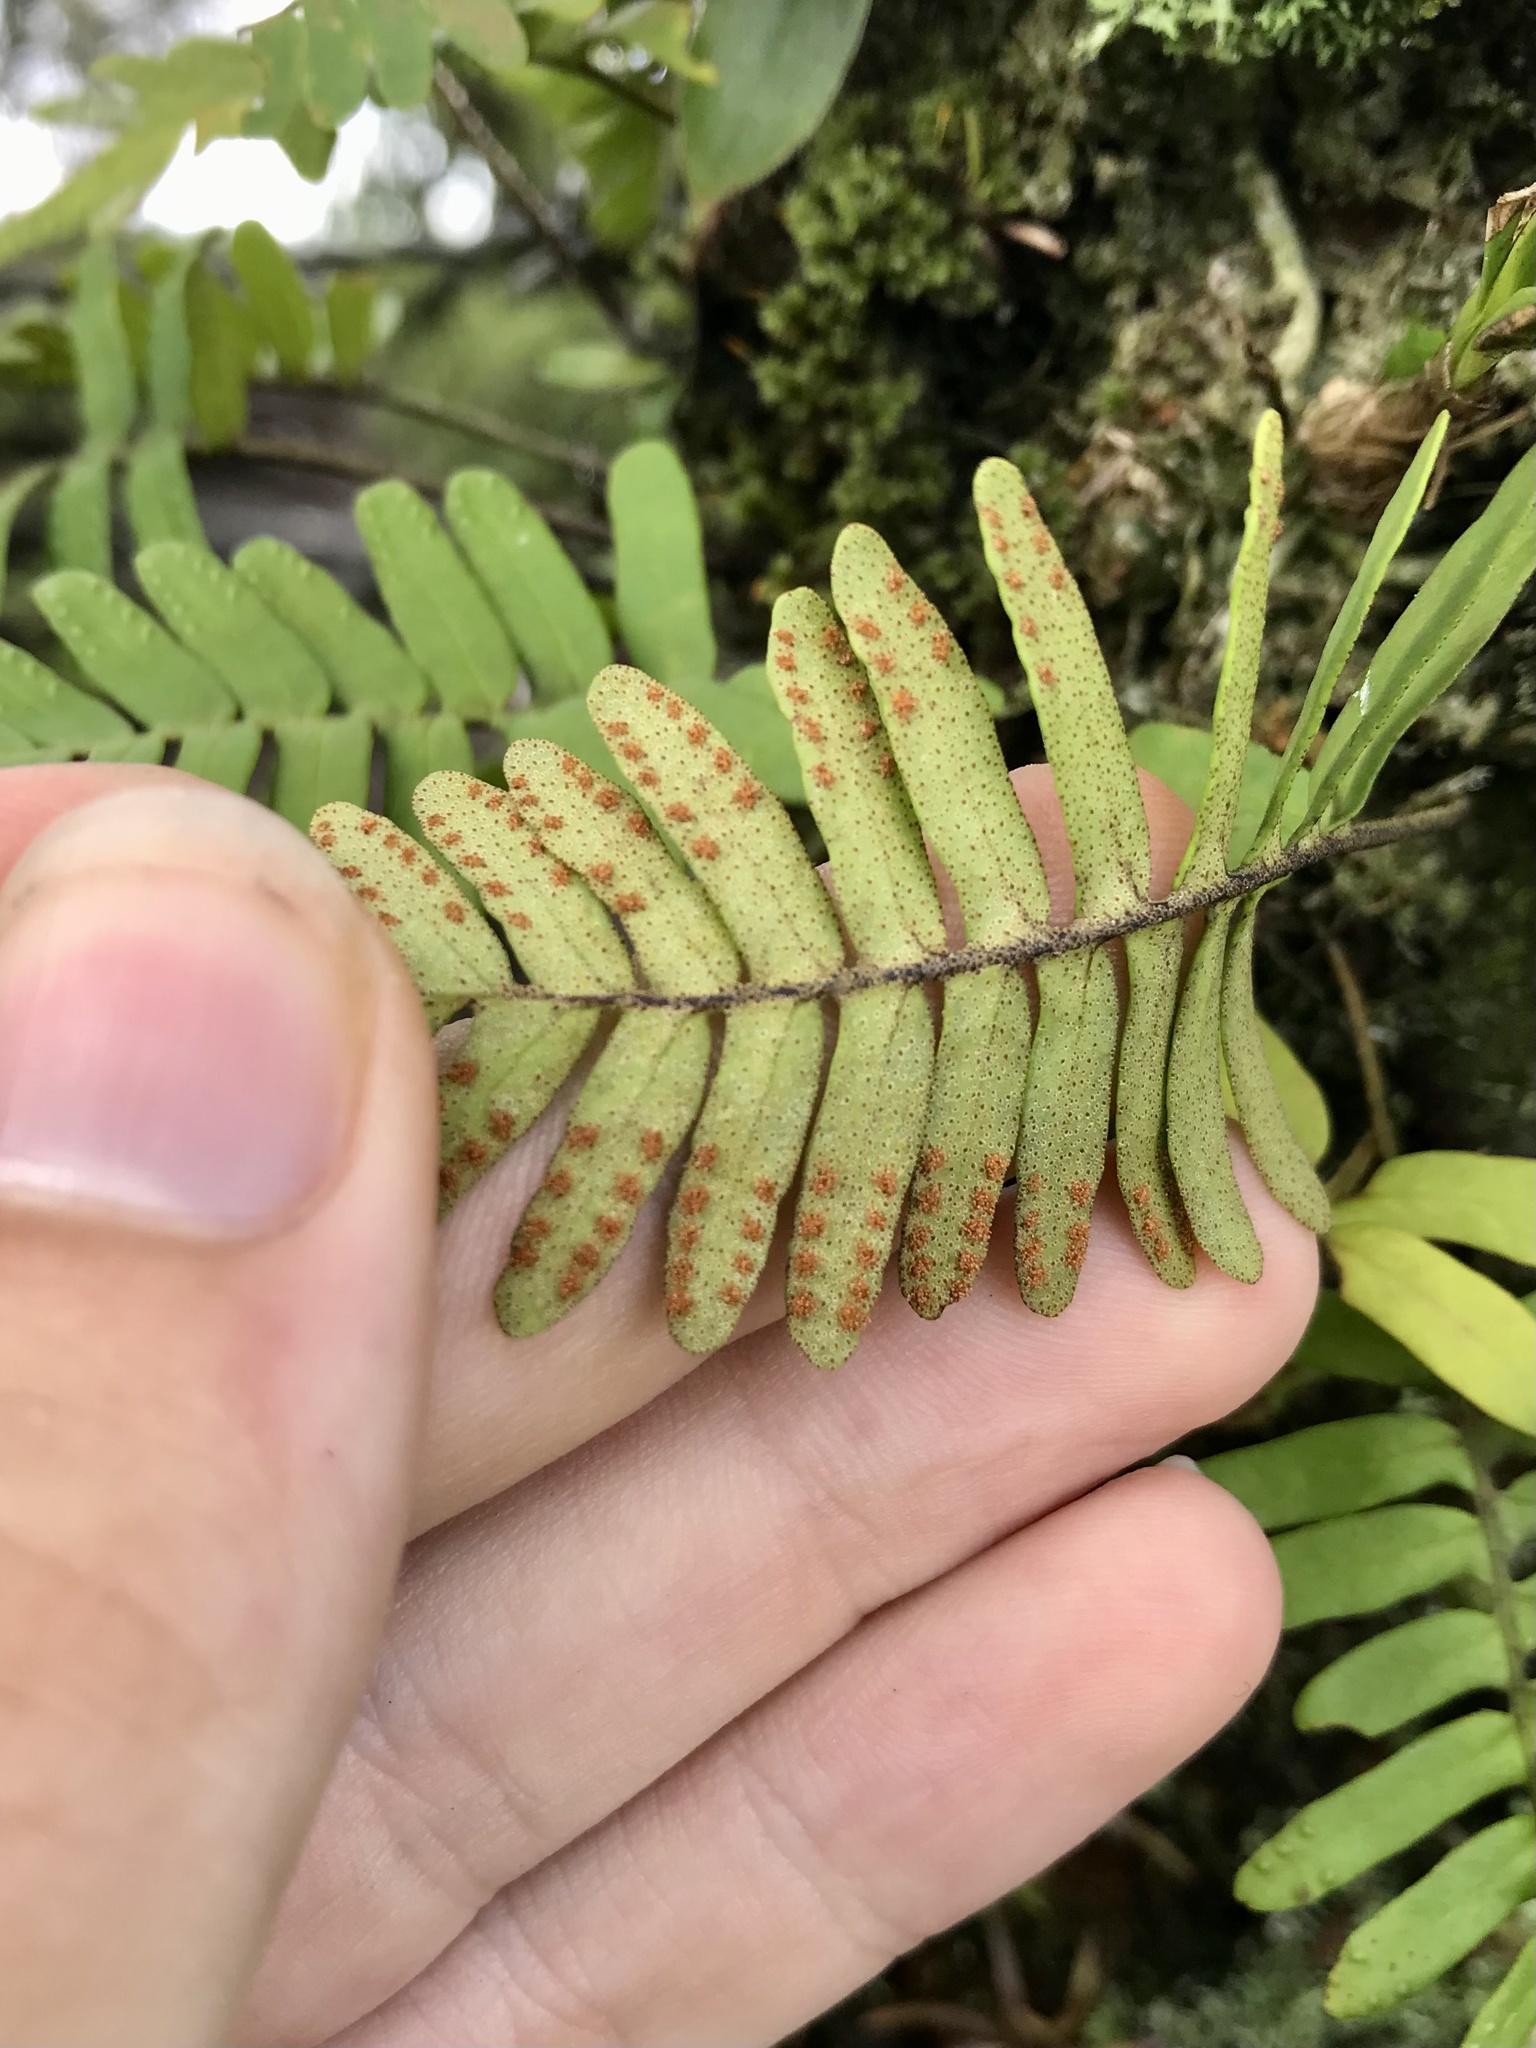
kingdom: Plantae
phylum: Tracheophyta
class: Polypodiopsida
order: Polypodiales
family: Polypodiaceae
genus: Pleopeltis
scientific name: Pleopeltis polypodioides
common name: Resurrection fern
